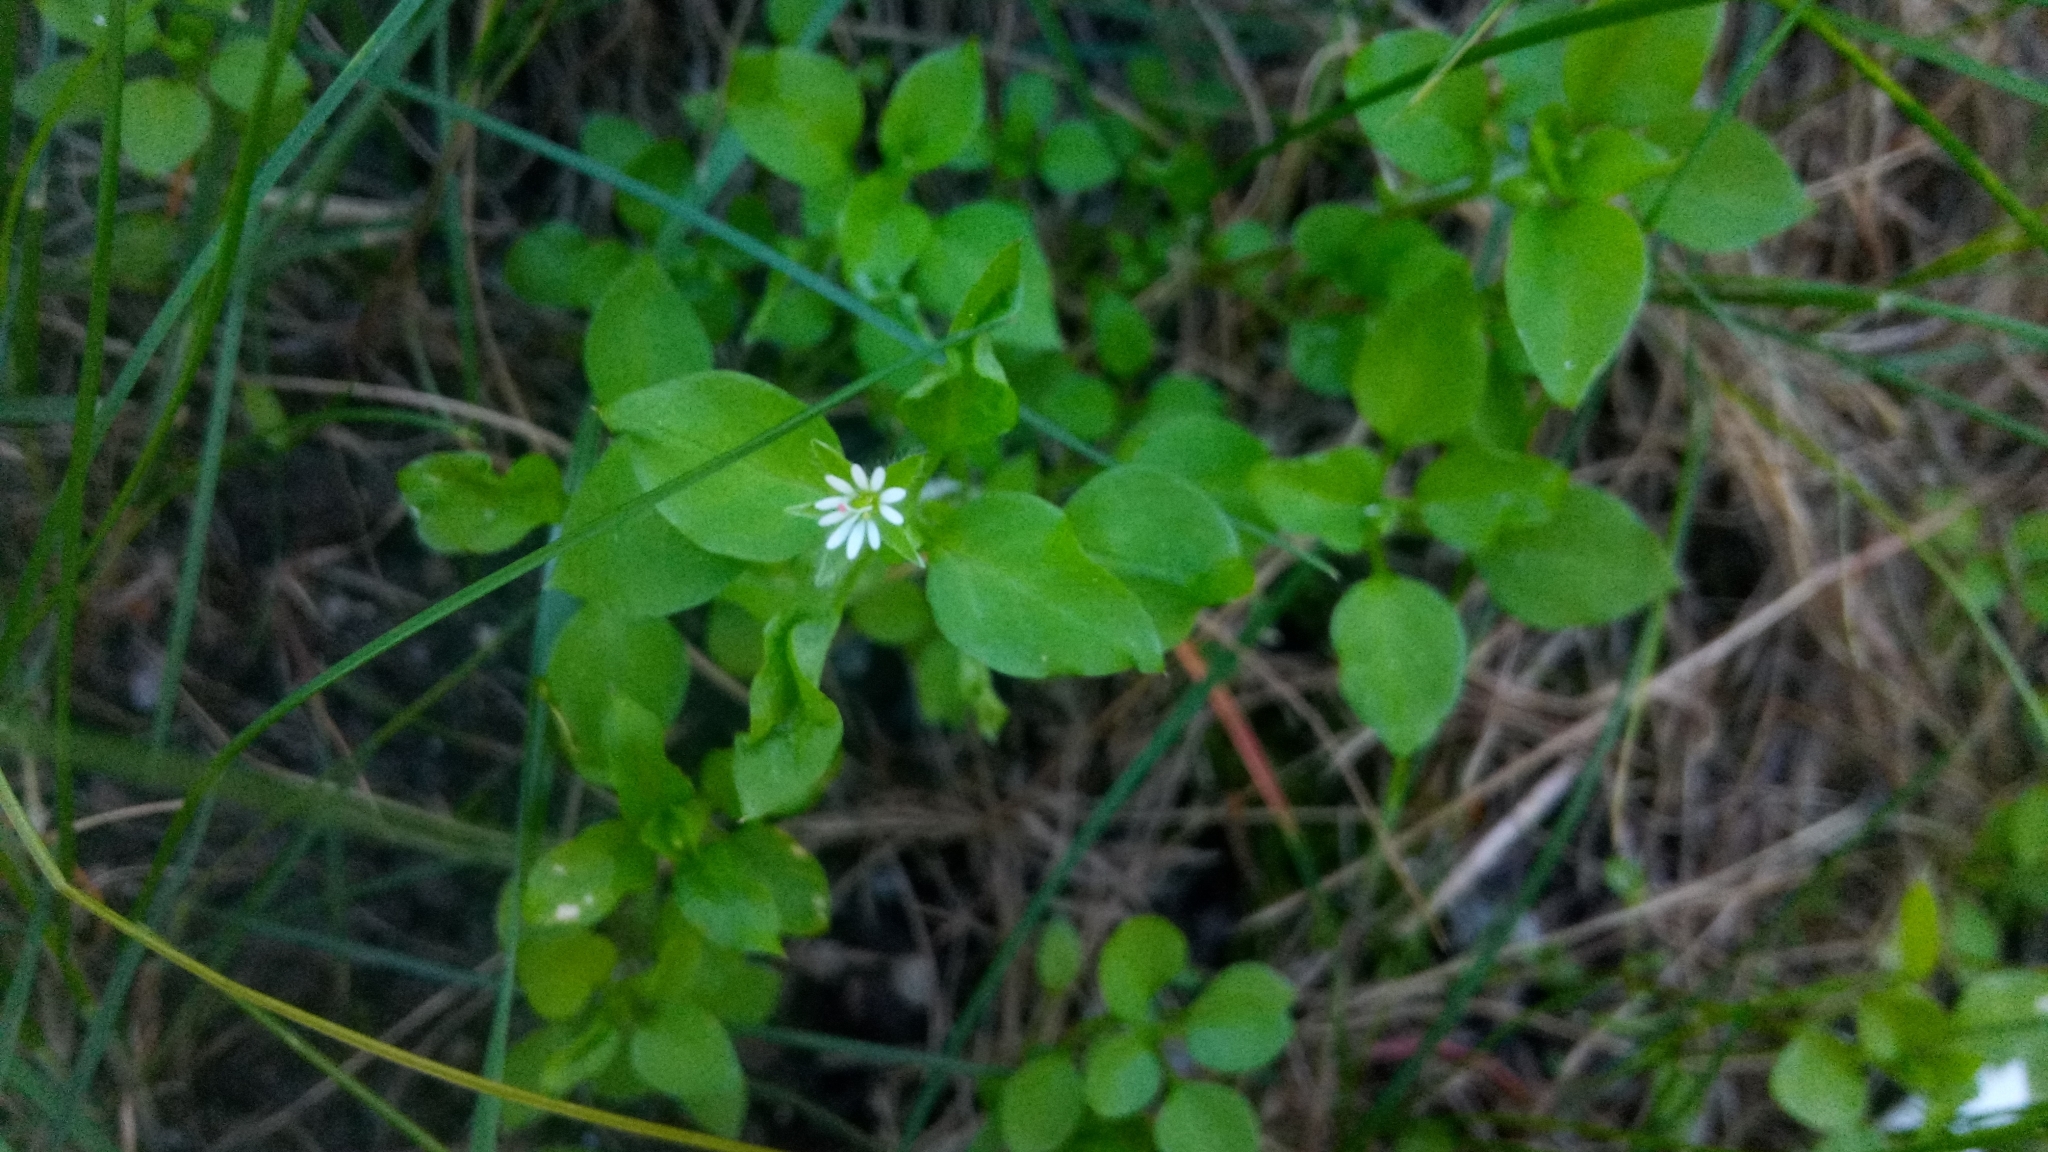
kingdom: Plantae
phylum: Tracheophyta
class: Magnoliopsida
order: Caryophyllales
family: Caryophyllaceae
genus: Stellaria
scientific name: Stellaria media
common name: Common chickweed
